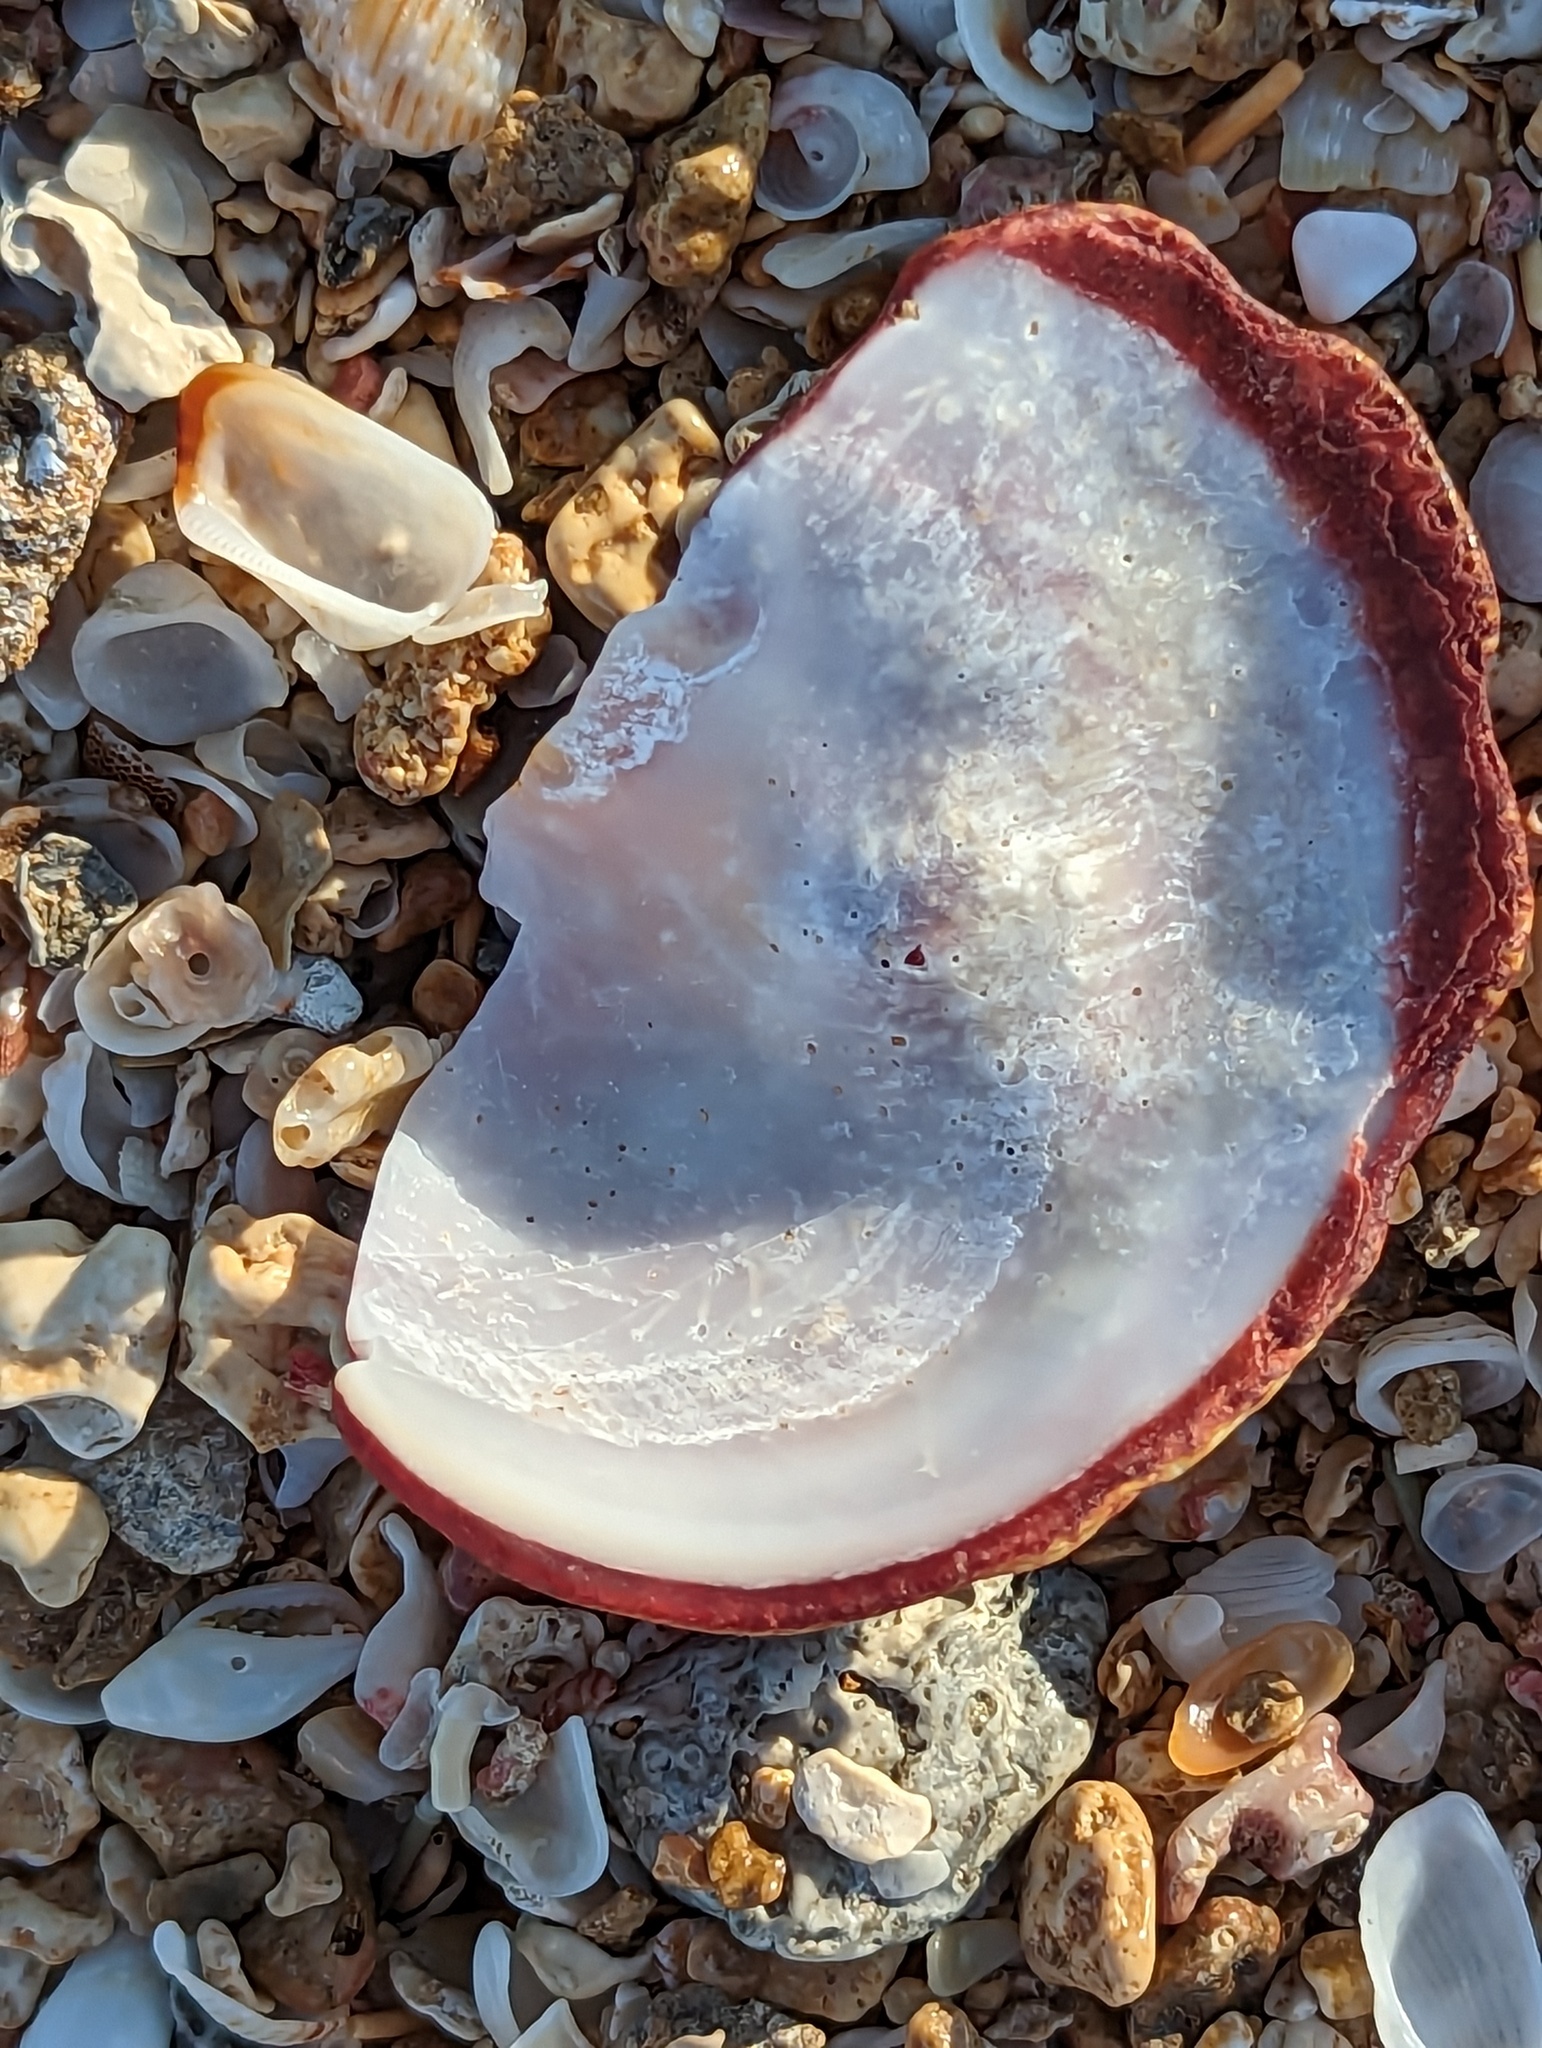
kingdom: Animalia
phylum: Mollusca
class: Bivalvia
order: Pectinida
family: Spondylidae
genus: Spondylus
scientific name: Spondylus tenuis
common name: Digitate thorny oyster
